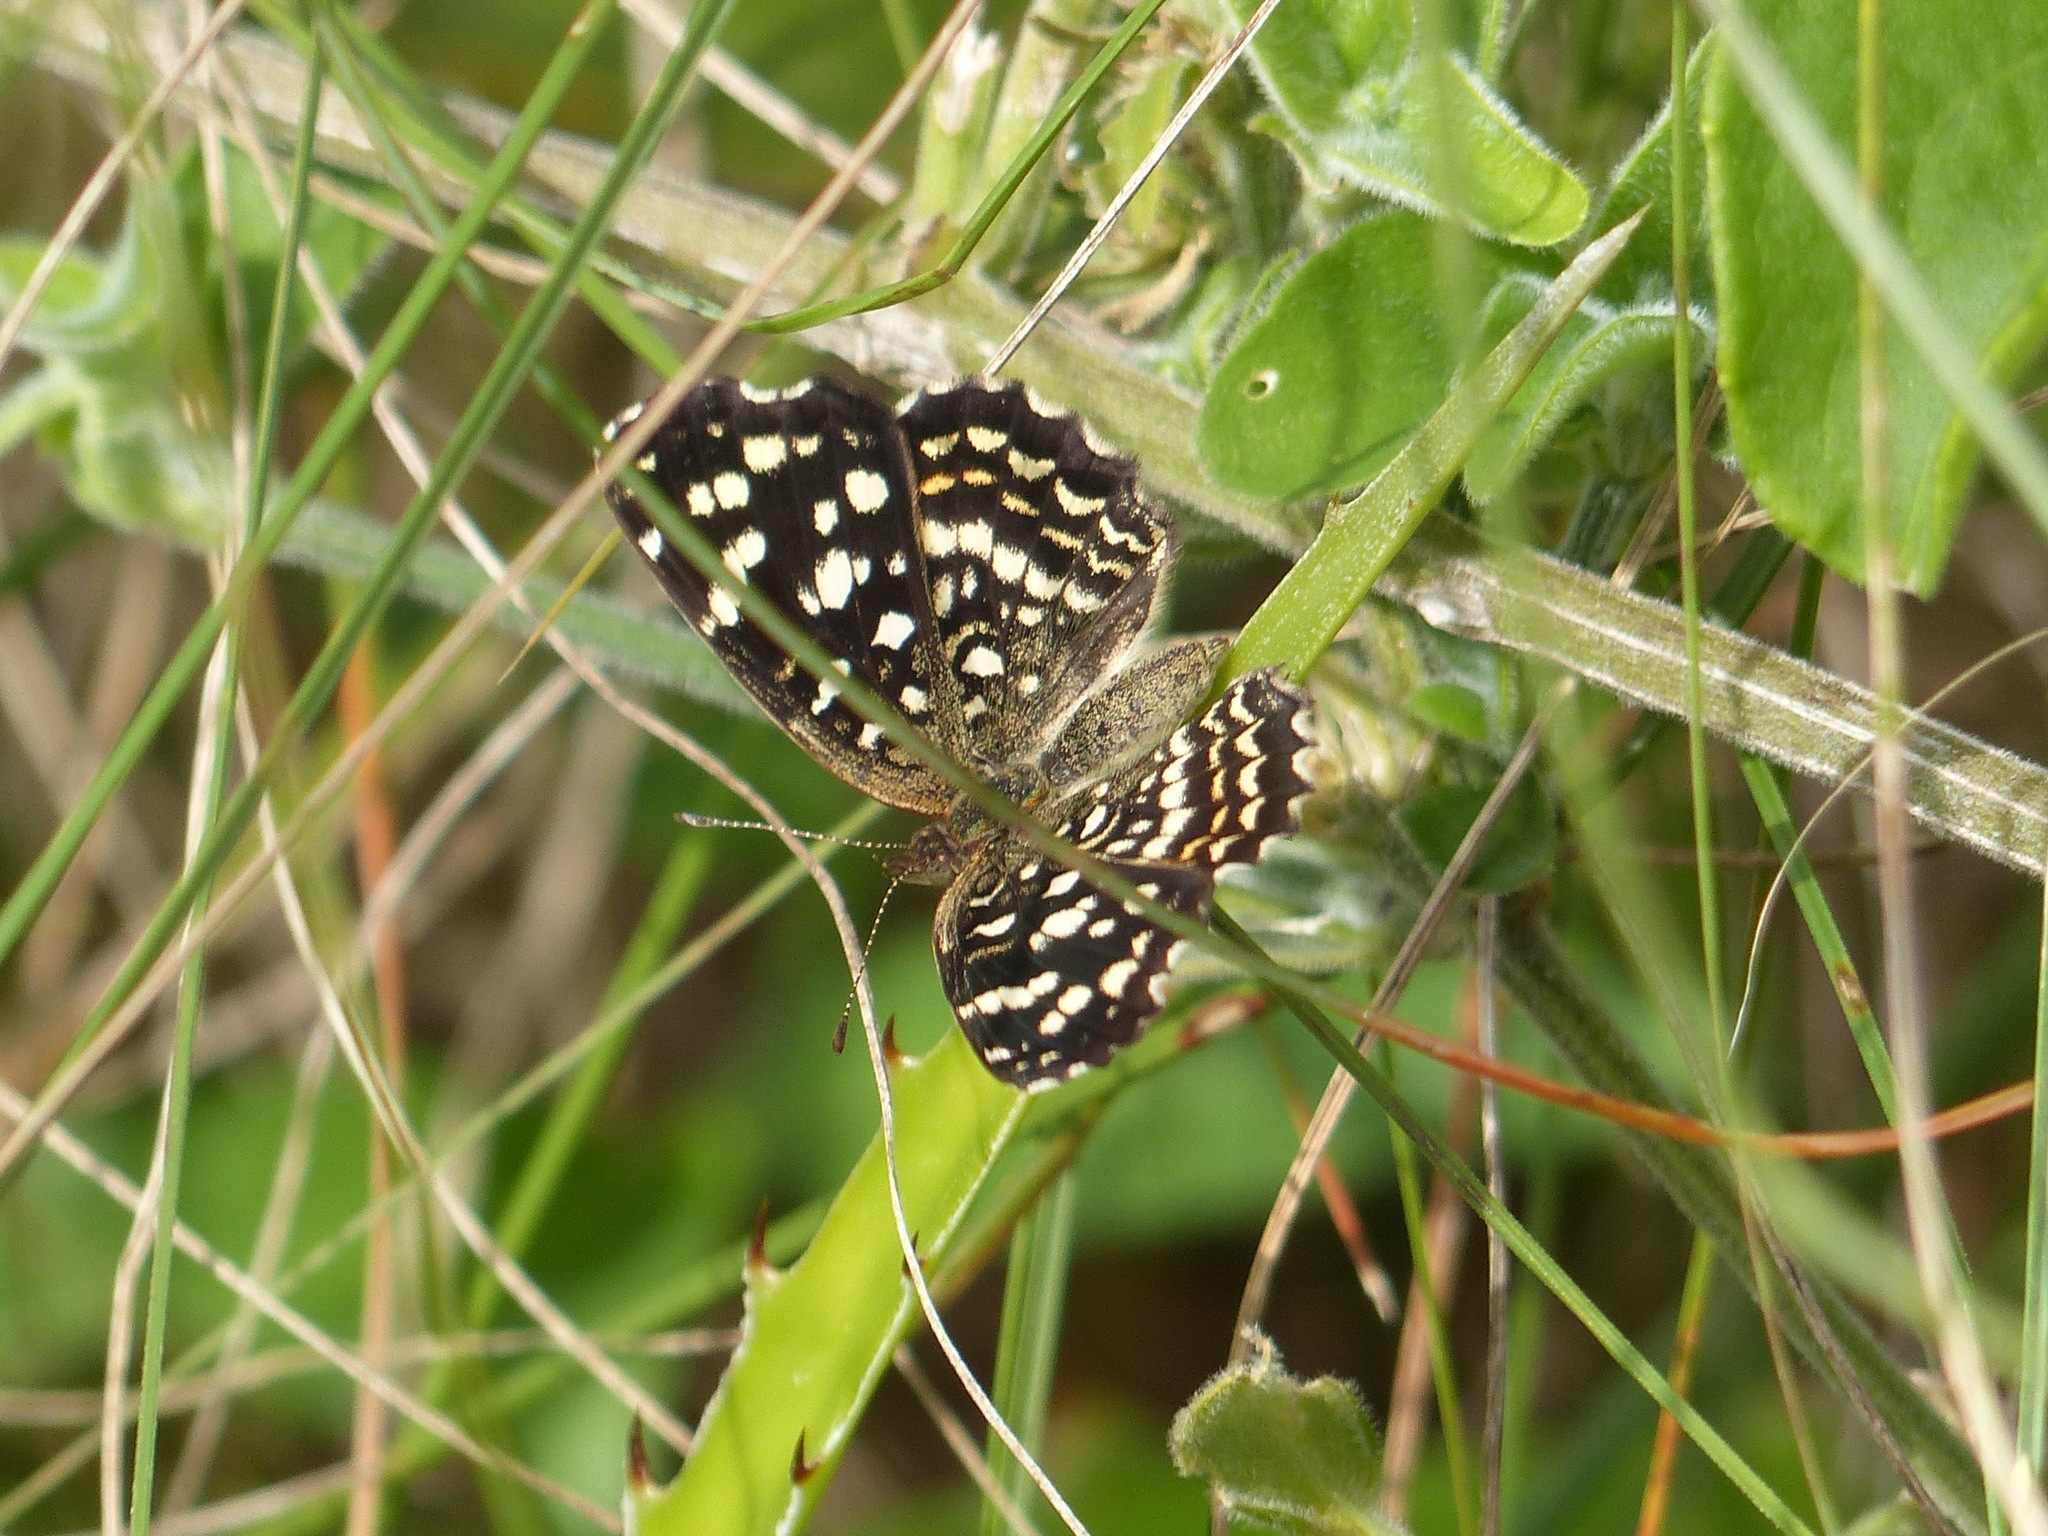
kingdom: Animalia
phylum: Arthropoda
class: Insecta
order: Lepidoptera
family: Nymphalidae
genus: Anthanassa
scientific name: Anthanassa hermas
